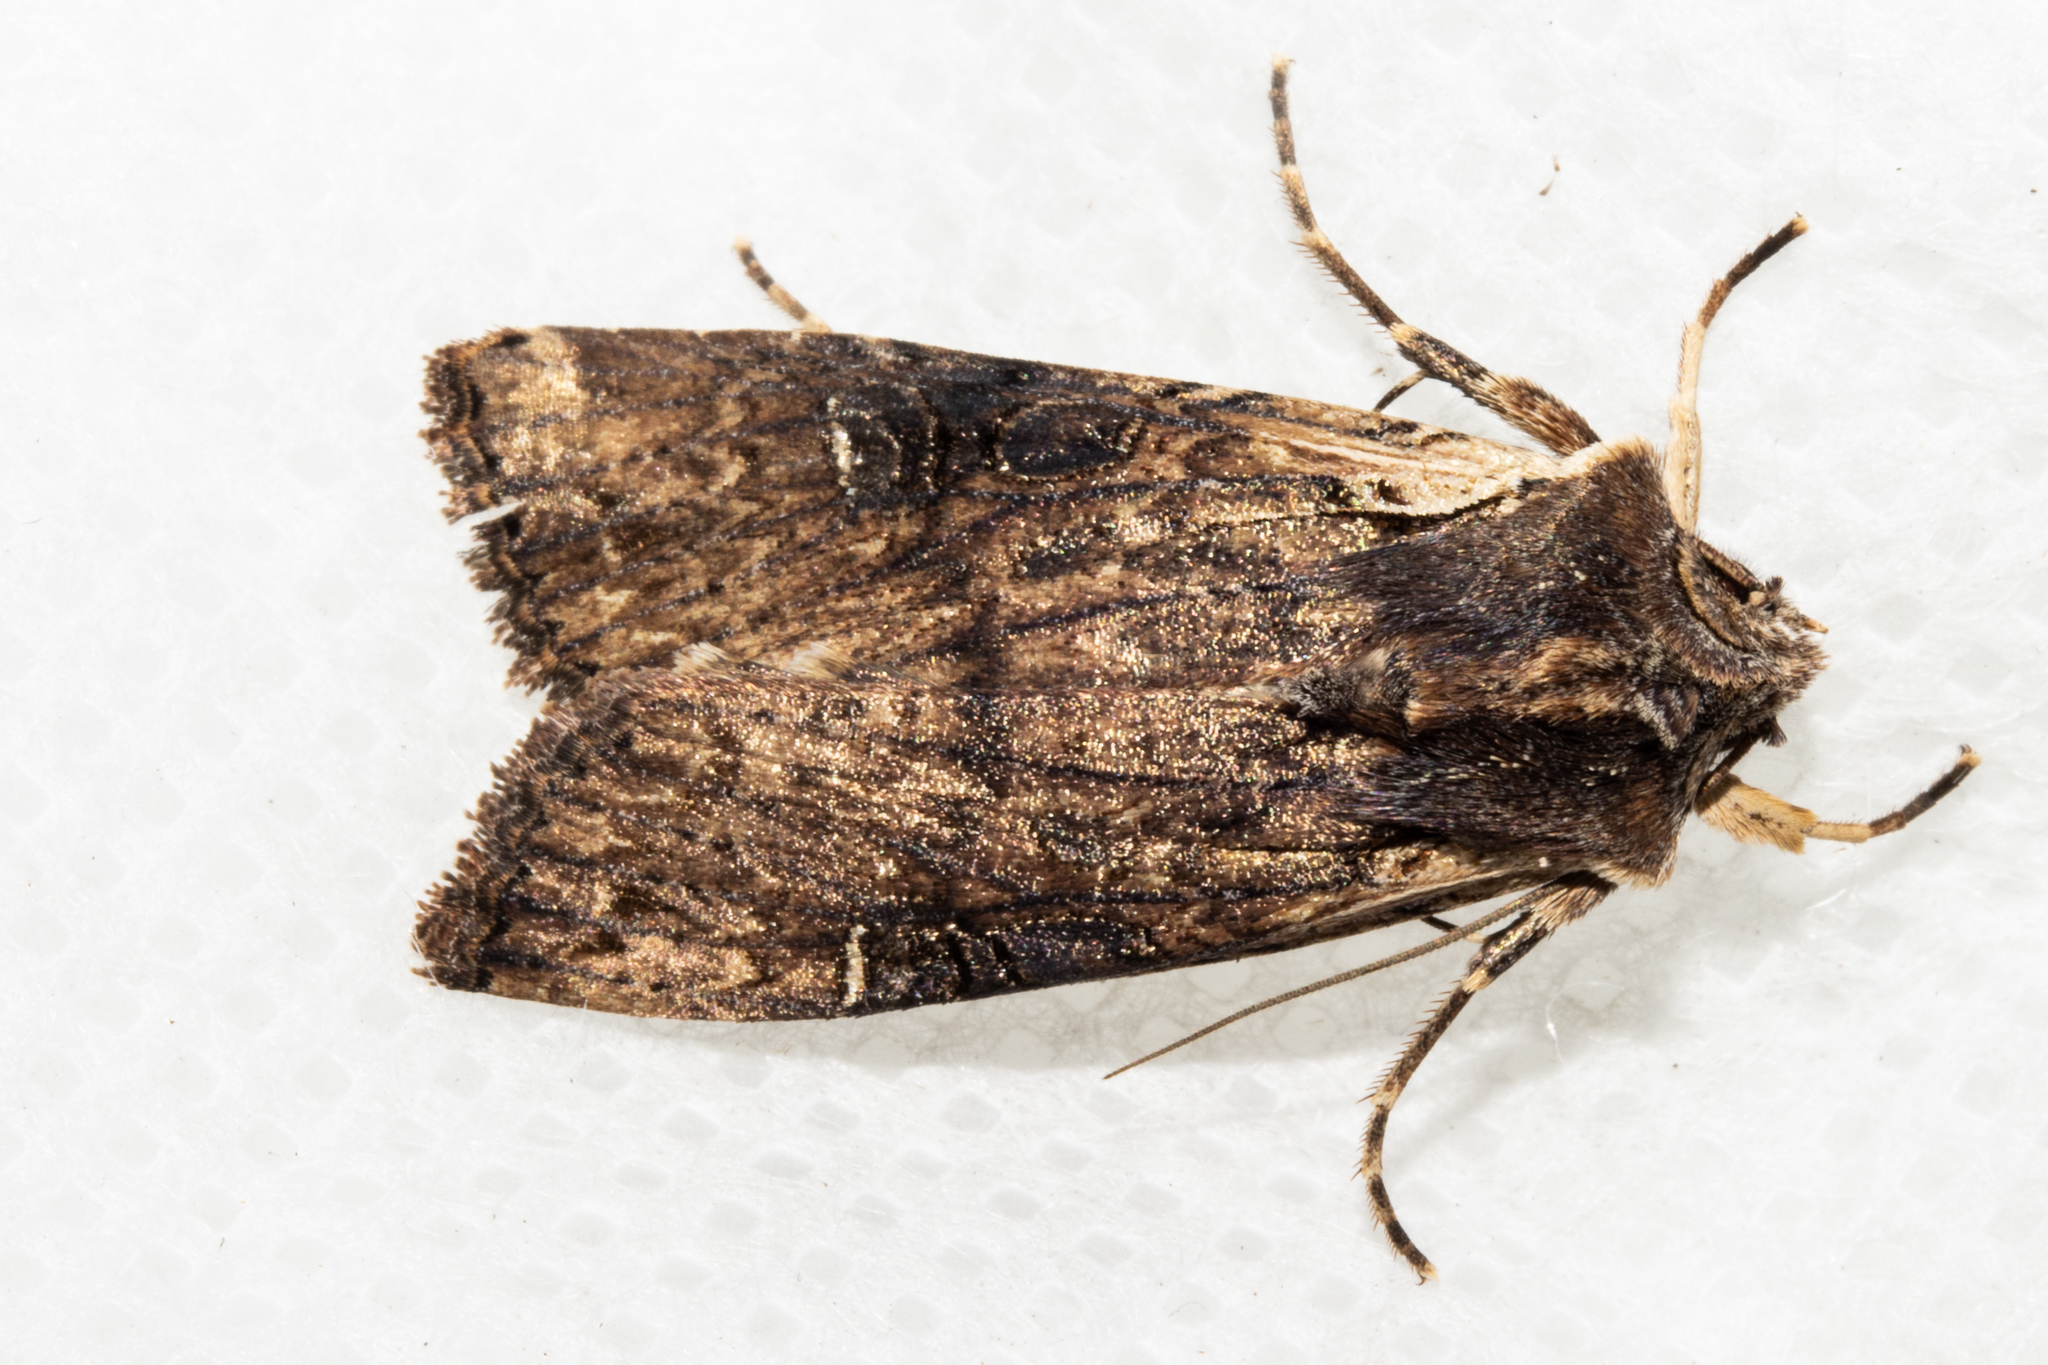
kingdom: Animalia
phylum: Arthropoda
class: Insecta
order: Lepidoptera
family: Noctuidae
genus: Ichneutica
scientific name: Ichneutica omoplaca
